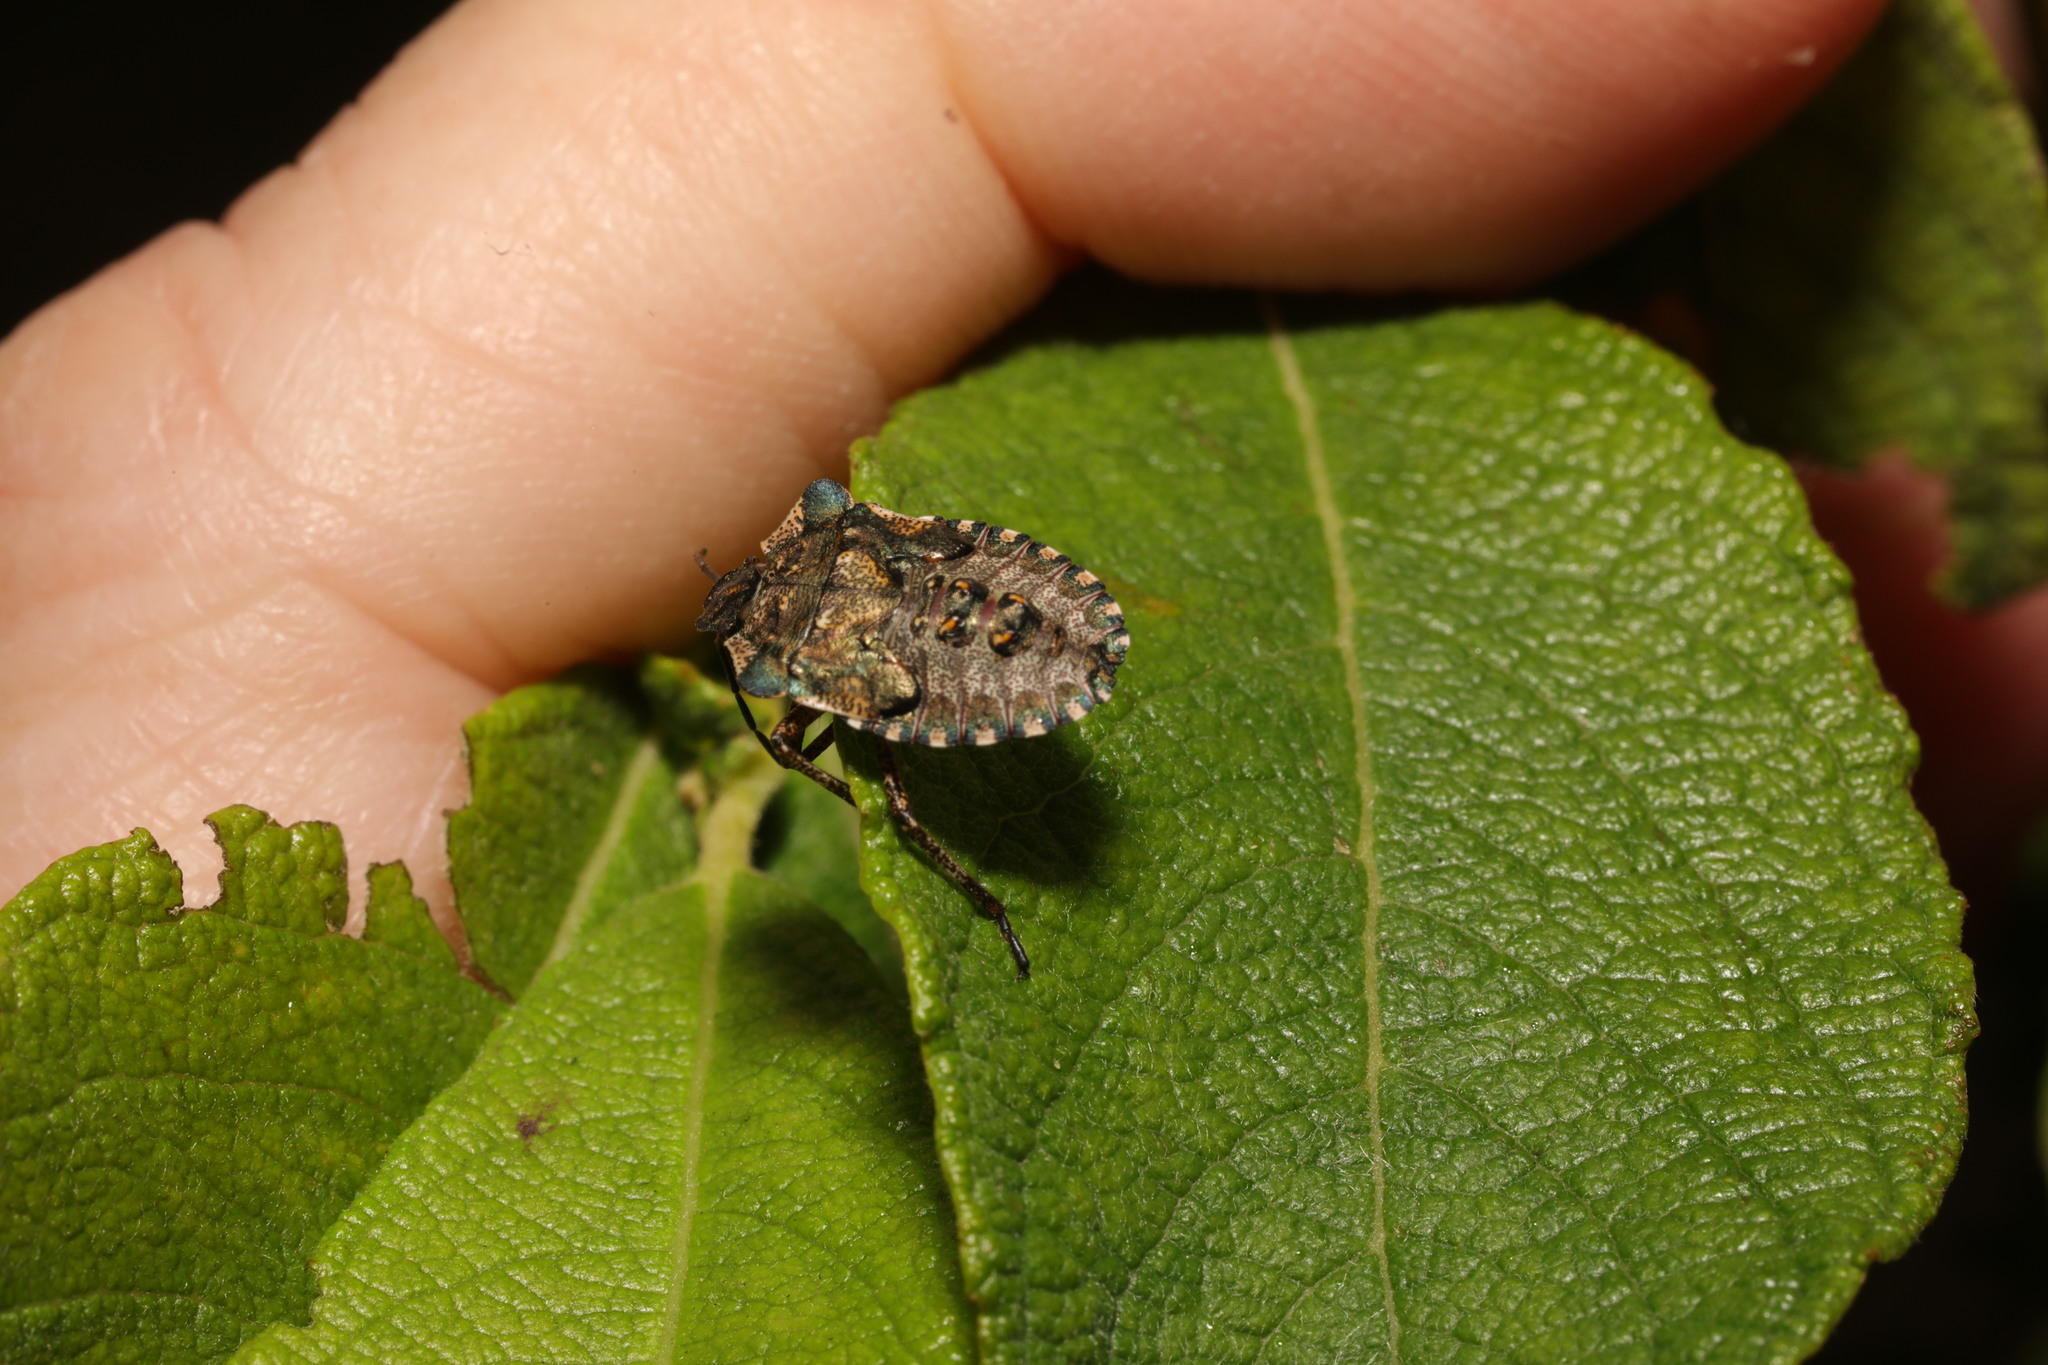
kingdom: Animalia
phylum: Arthropoda
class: Insecta
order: Hemiptera
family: Pentatomidae
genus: Pentatoma
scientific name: Pentatoma rufipes
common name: Forest bug
